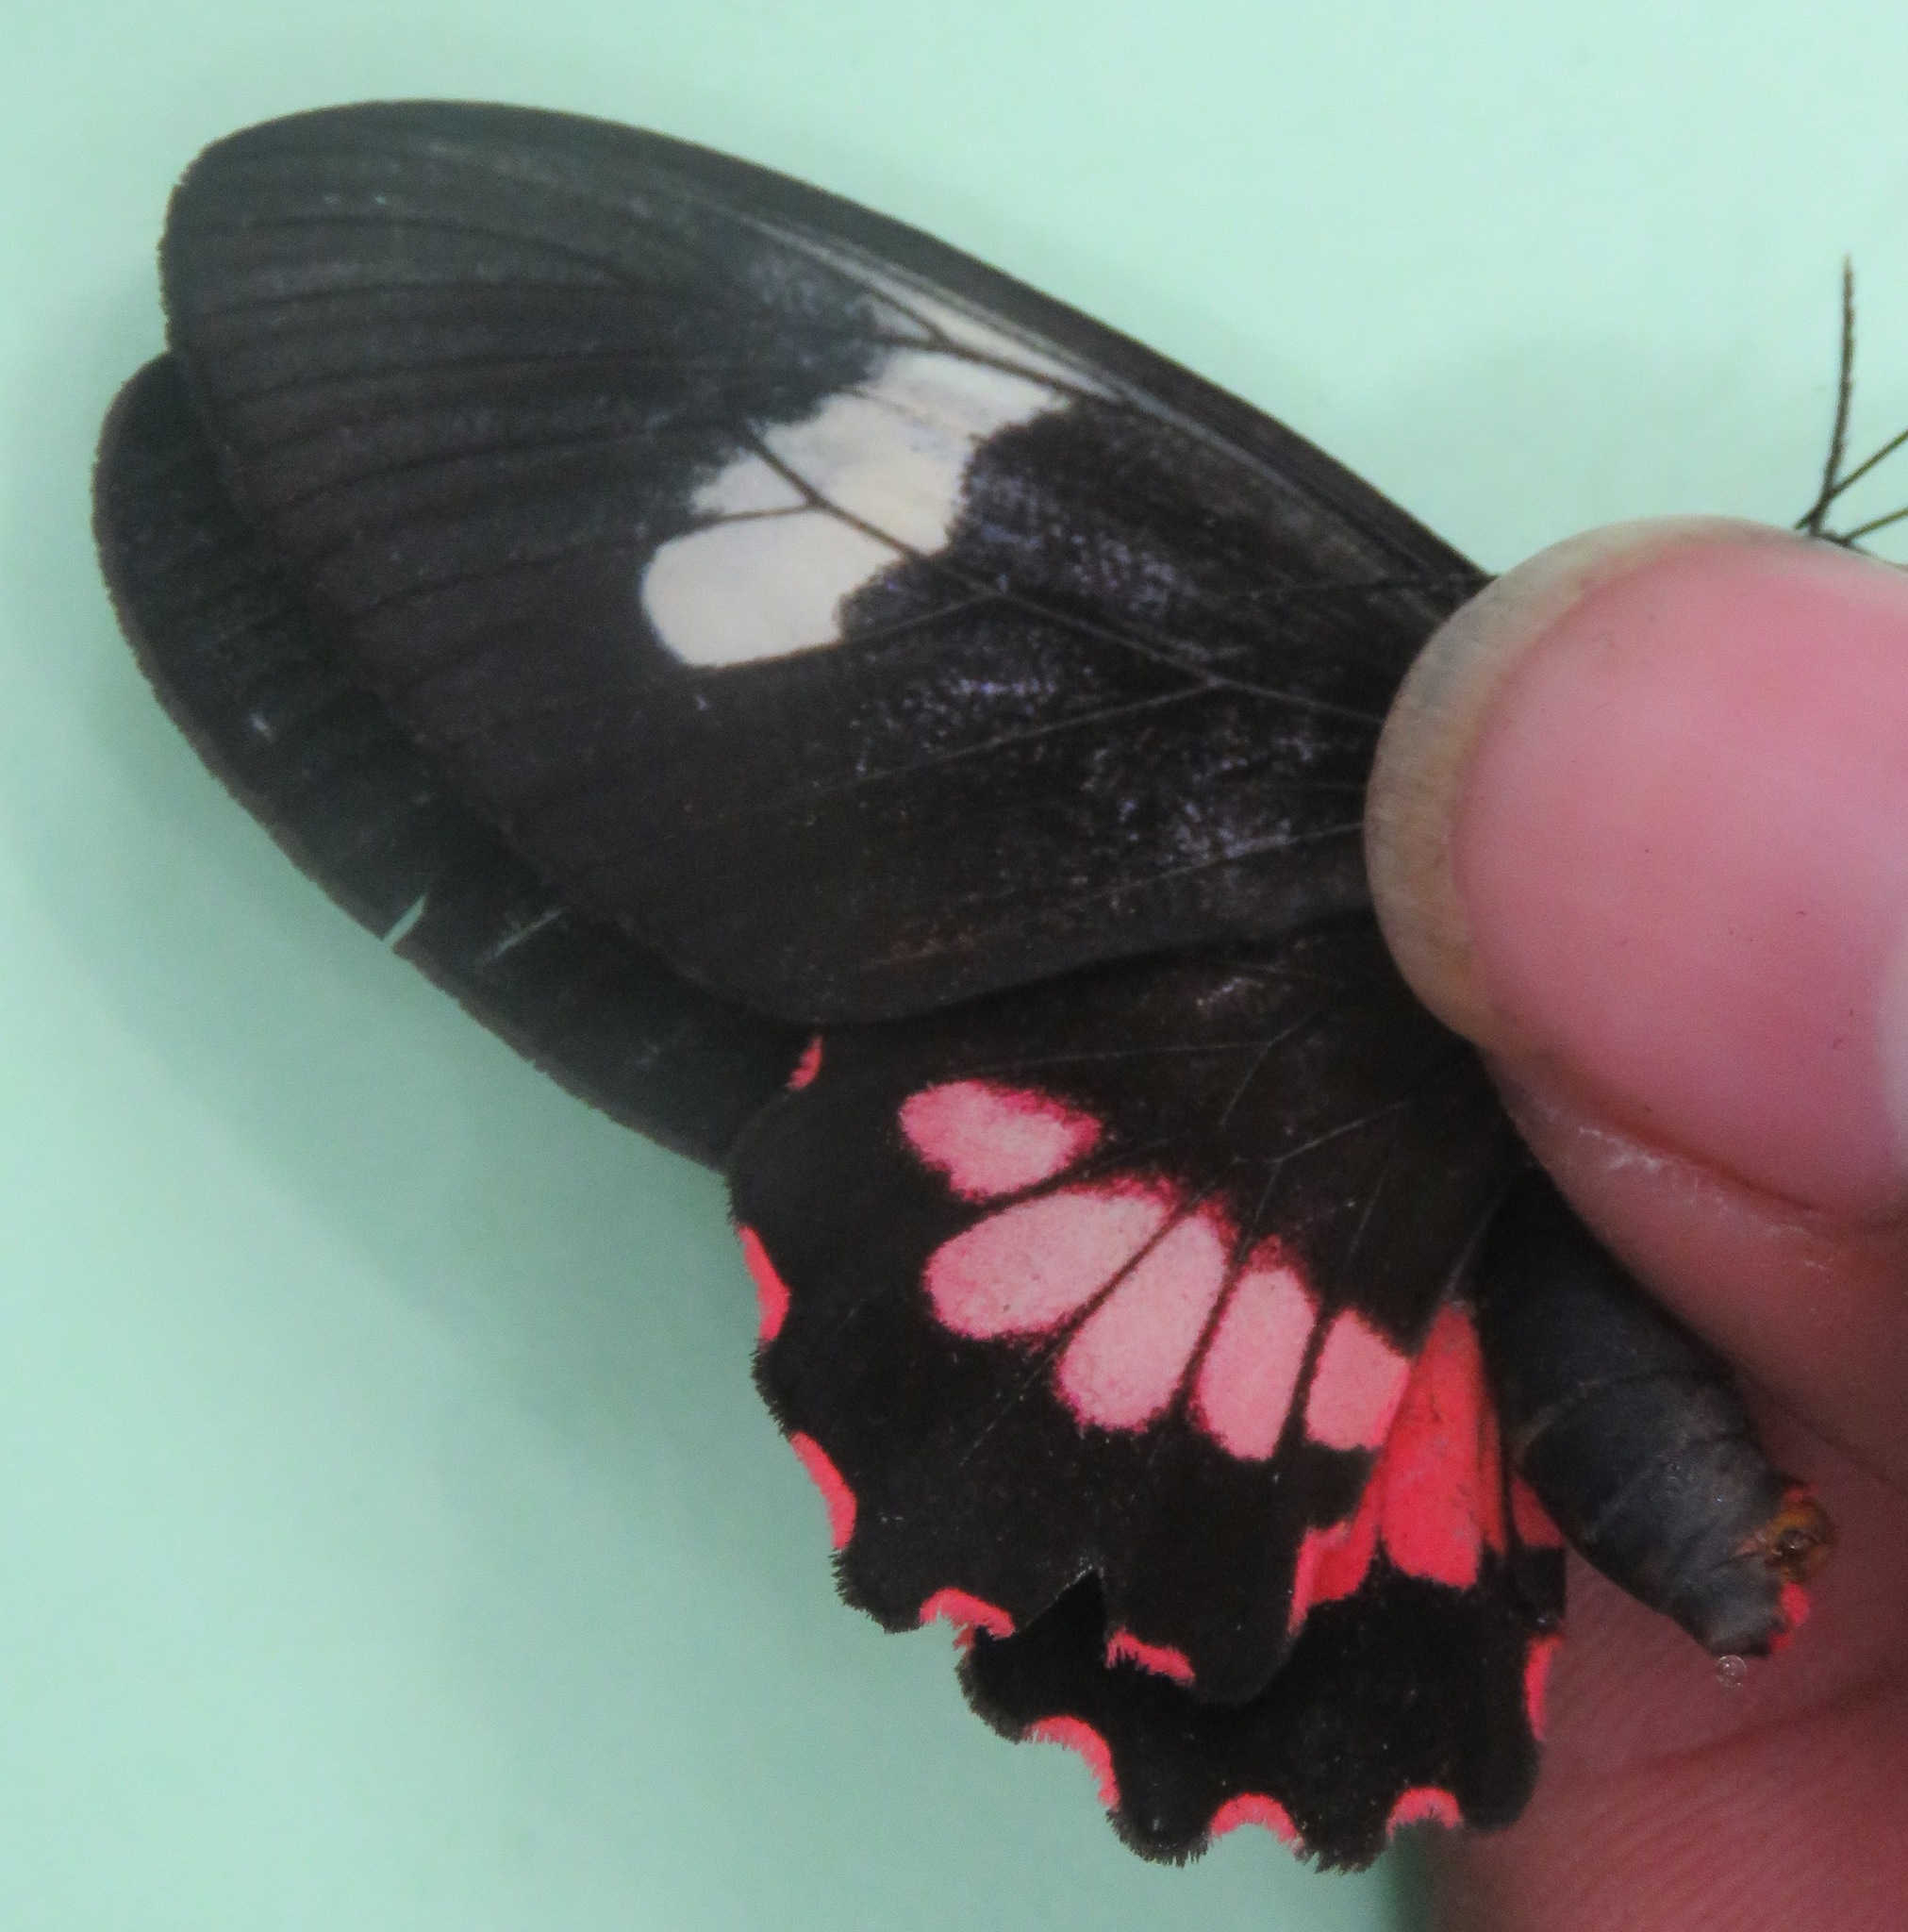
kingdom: Animalia
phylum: Arthropoda
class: Insecta
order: Lepidoptera
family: Papilionidae
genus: Parides
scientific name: Parides eurimedes
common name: True cattleheart
